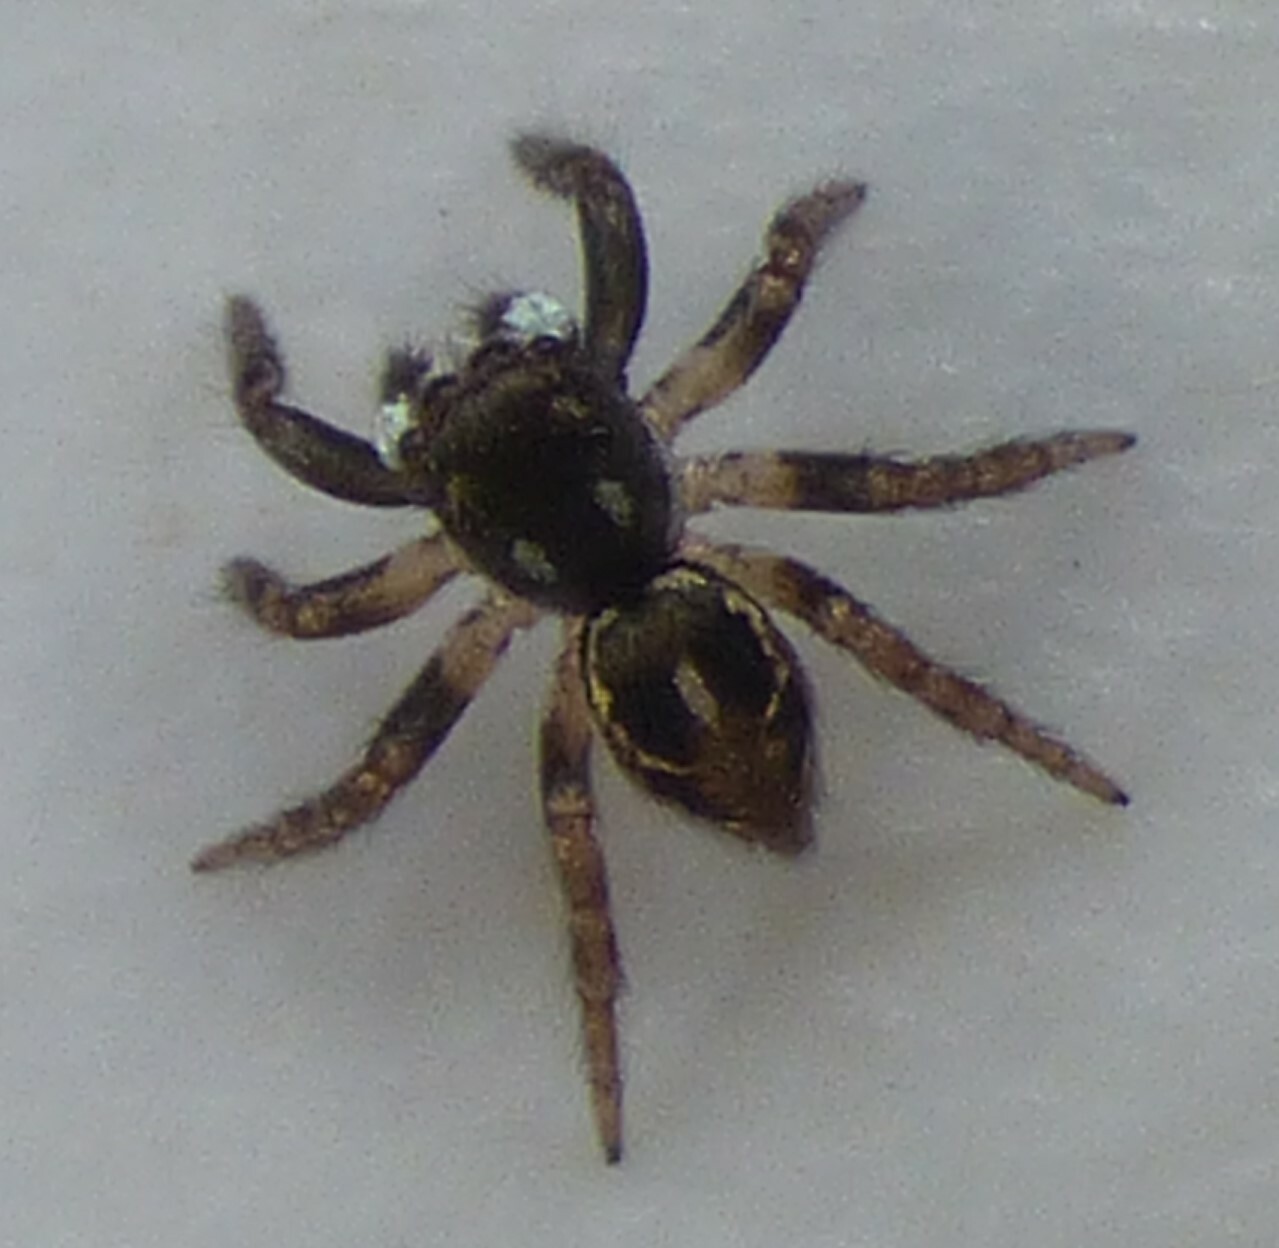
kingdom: Animalia
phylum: Arthropoda
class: Arachnida
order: Araneae
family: Salticidae
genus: Anasaitis
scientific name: Anasaitis canosa
